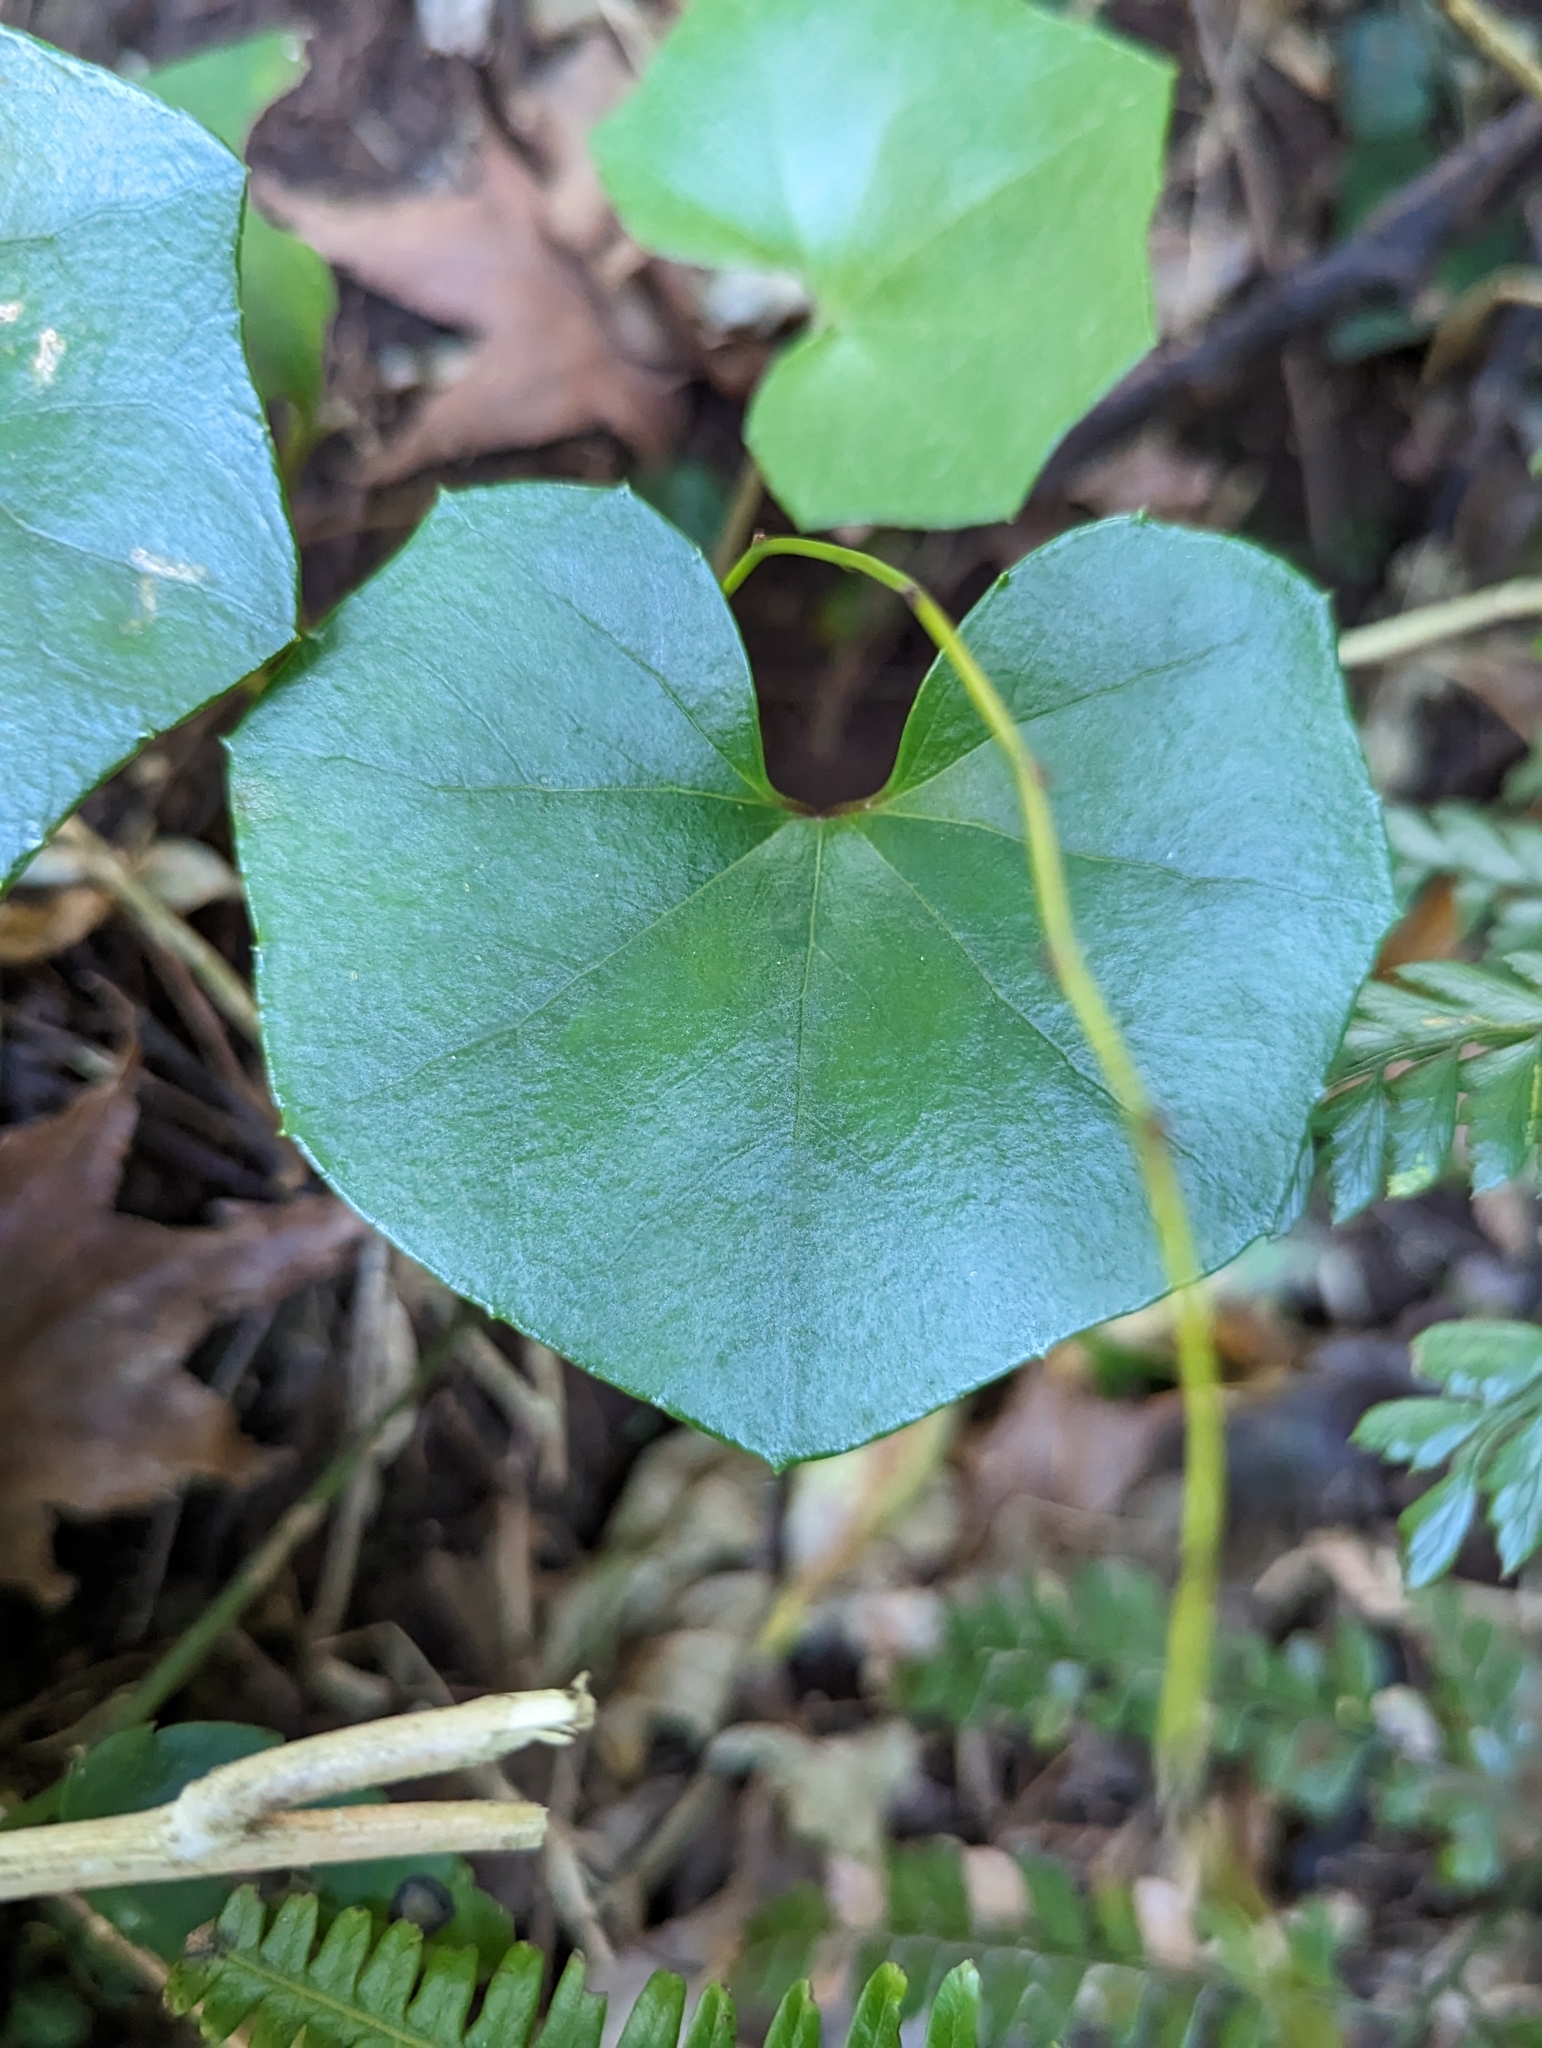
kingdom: Plantae
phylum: Tracheophyta
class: Magnoliopsida
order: Asterales
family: Asteraceae
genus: Farfugium
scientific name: Farfugium japonicum
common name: Leopardplant
